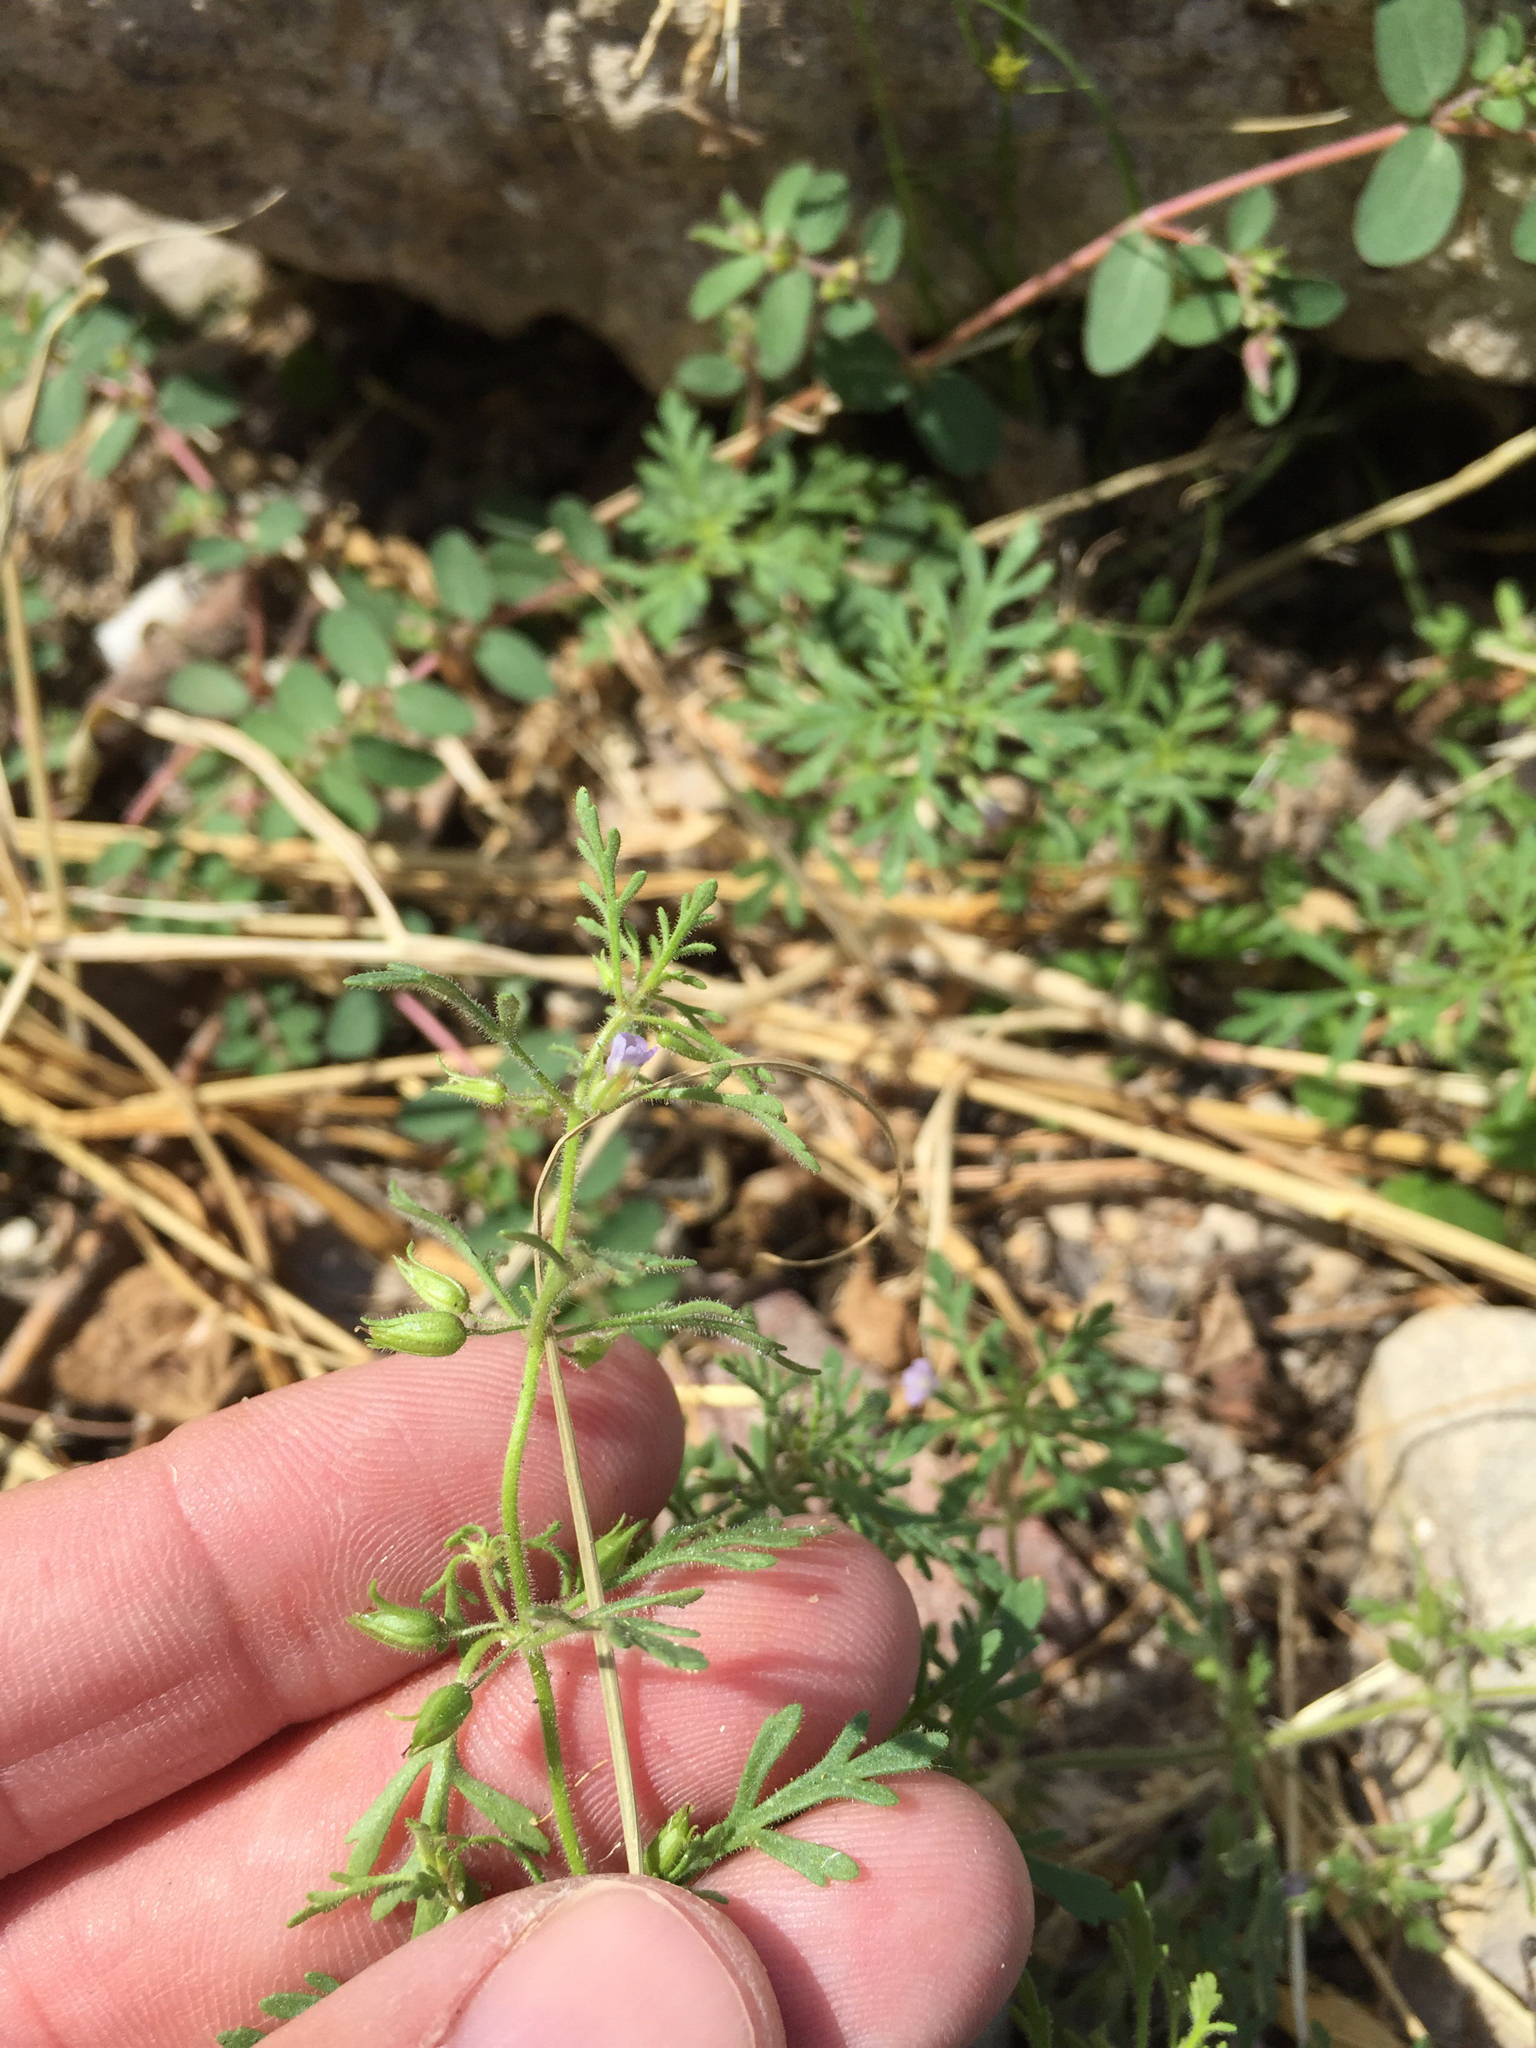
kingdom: Plantae
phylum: Tracheophyta
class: Magnoliopsida
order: Lamiales
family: Plantaginaceae
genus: Leucospora
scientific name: Leucospora multifida
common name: Narrow-leaf paleseed
